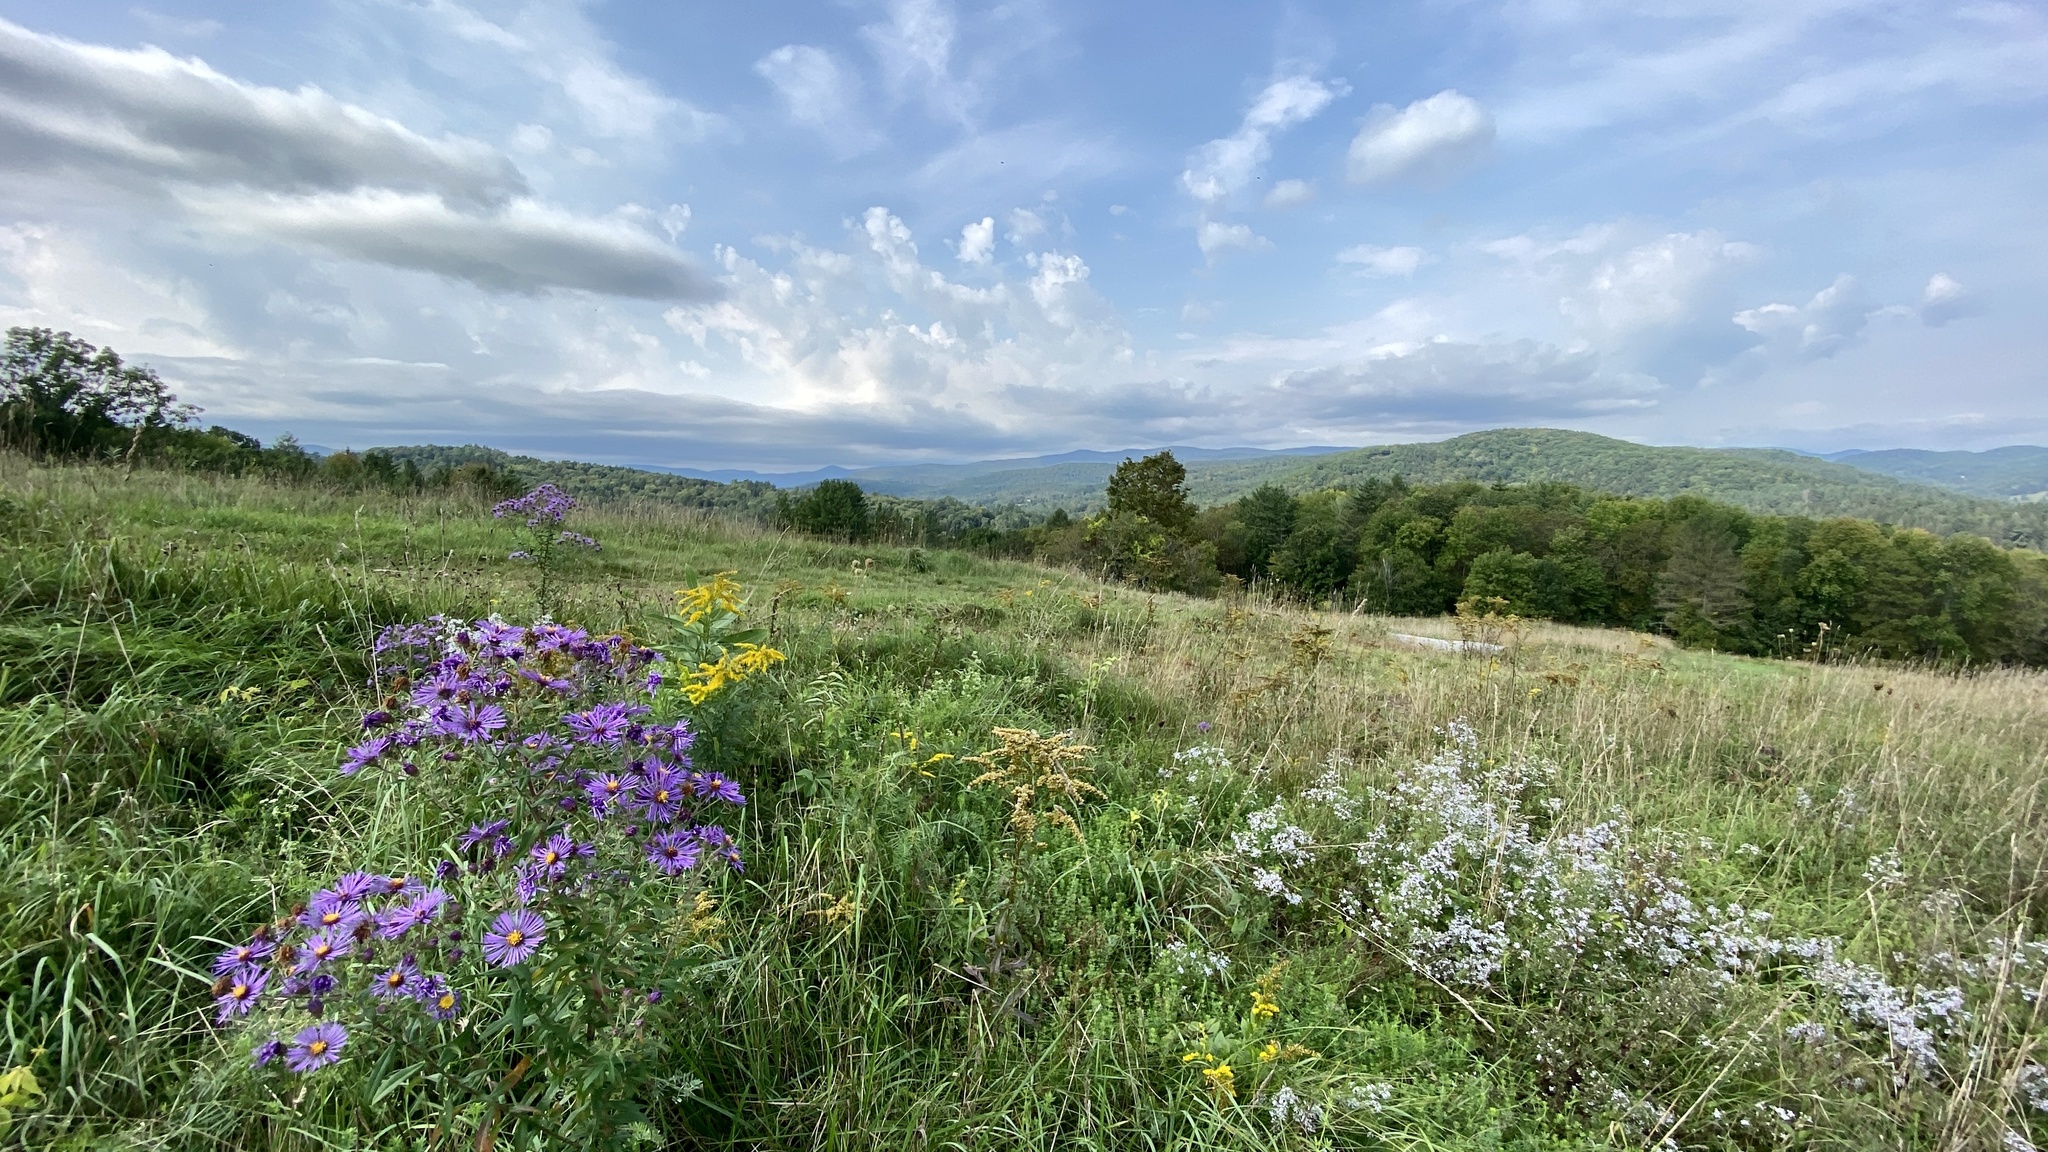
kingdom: Plantae
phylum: Tracheophyta
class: Magnoliopsida
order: Asterales
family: Asteraceae
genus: Symphyotrichum
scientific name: Symphyotrichum novae-angliae
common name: Michaelmas daisy
